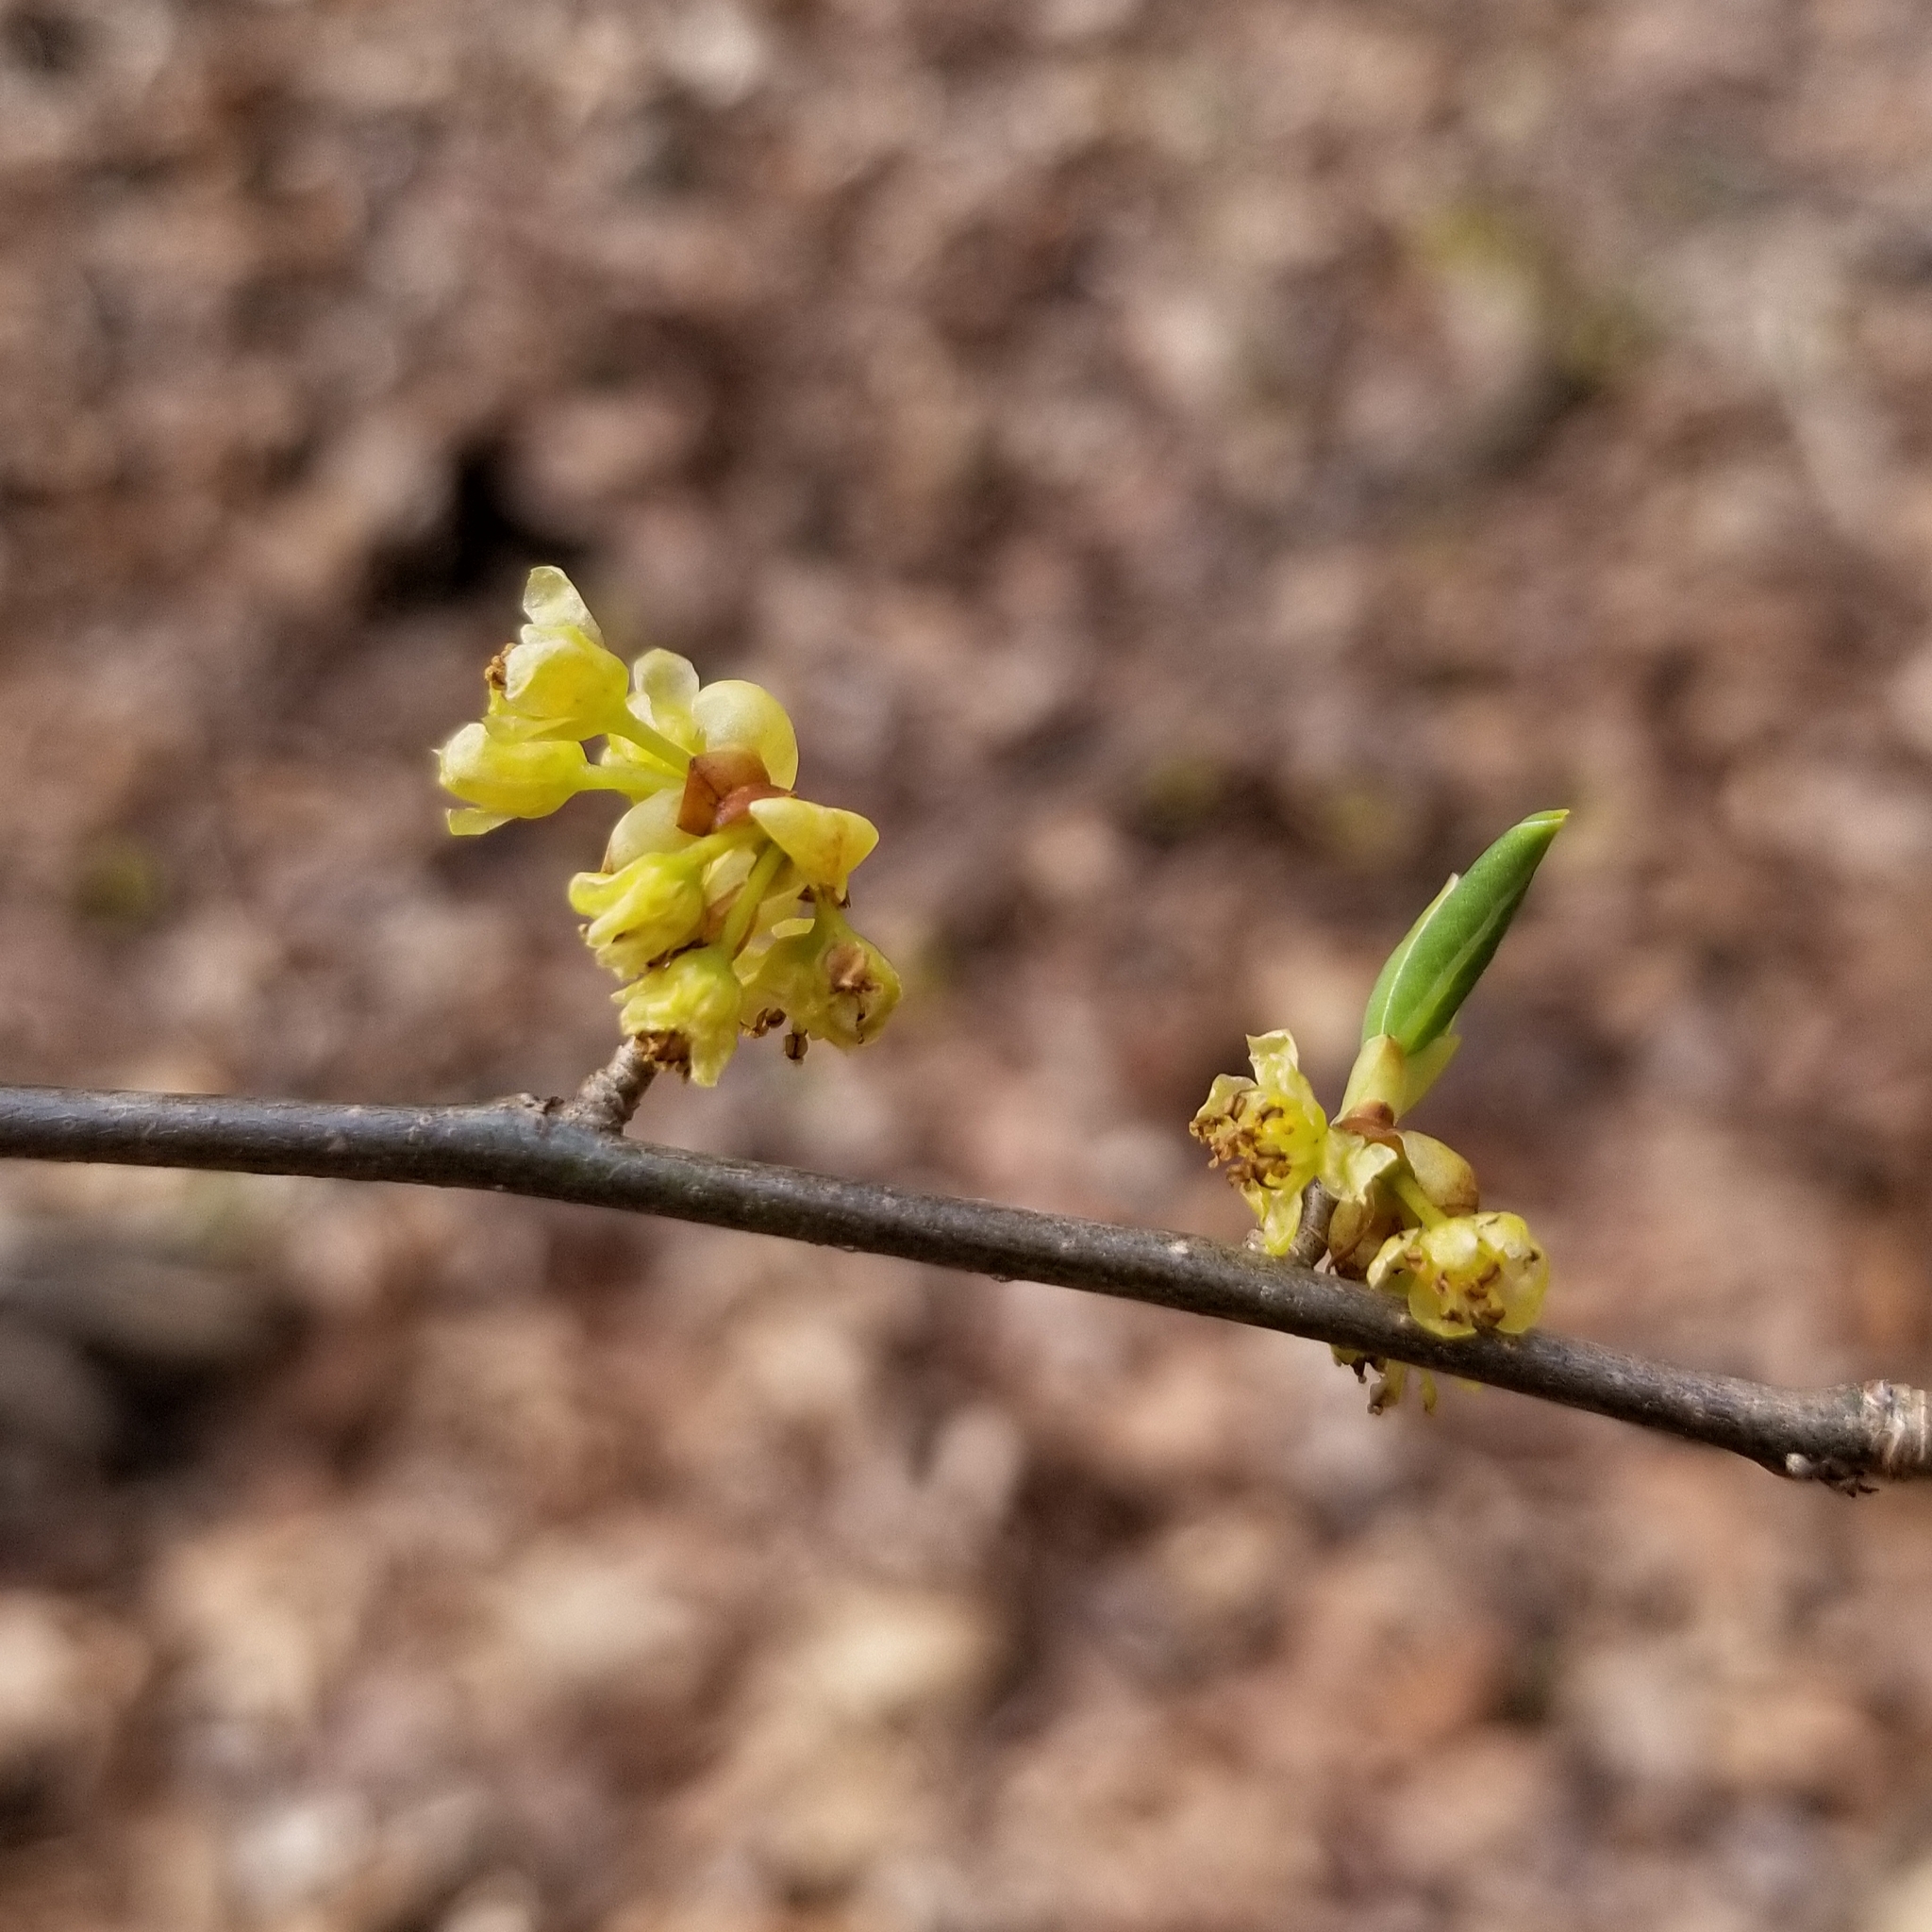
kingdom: Plantae
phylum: Tracheophyta
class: Magnoliopsida
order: Laurales
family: Lauraceae
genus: Lindera
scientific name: Lindera benzoin
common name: Spicebush
